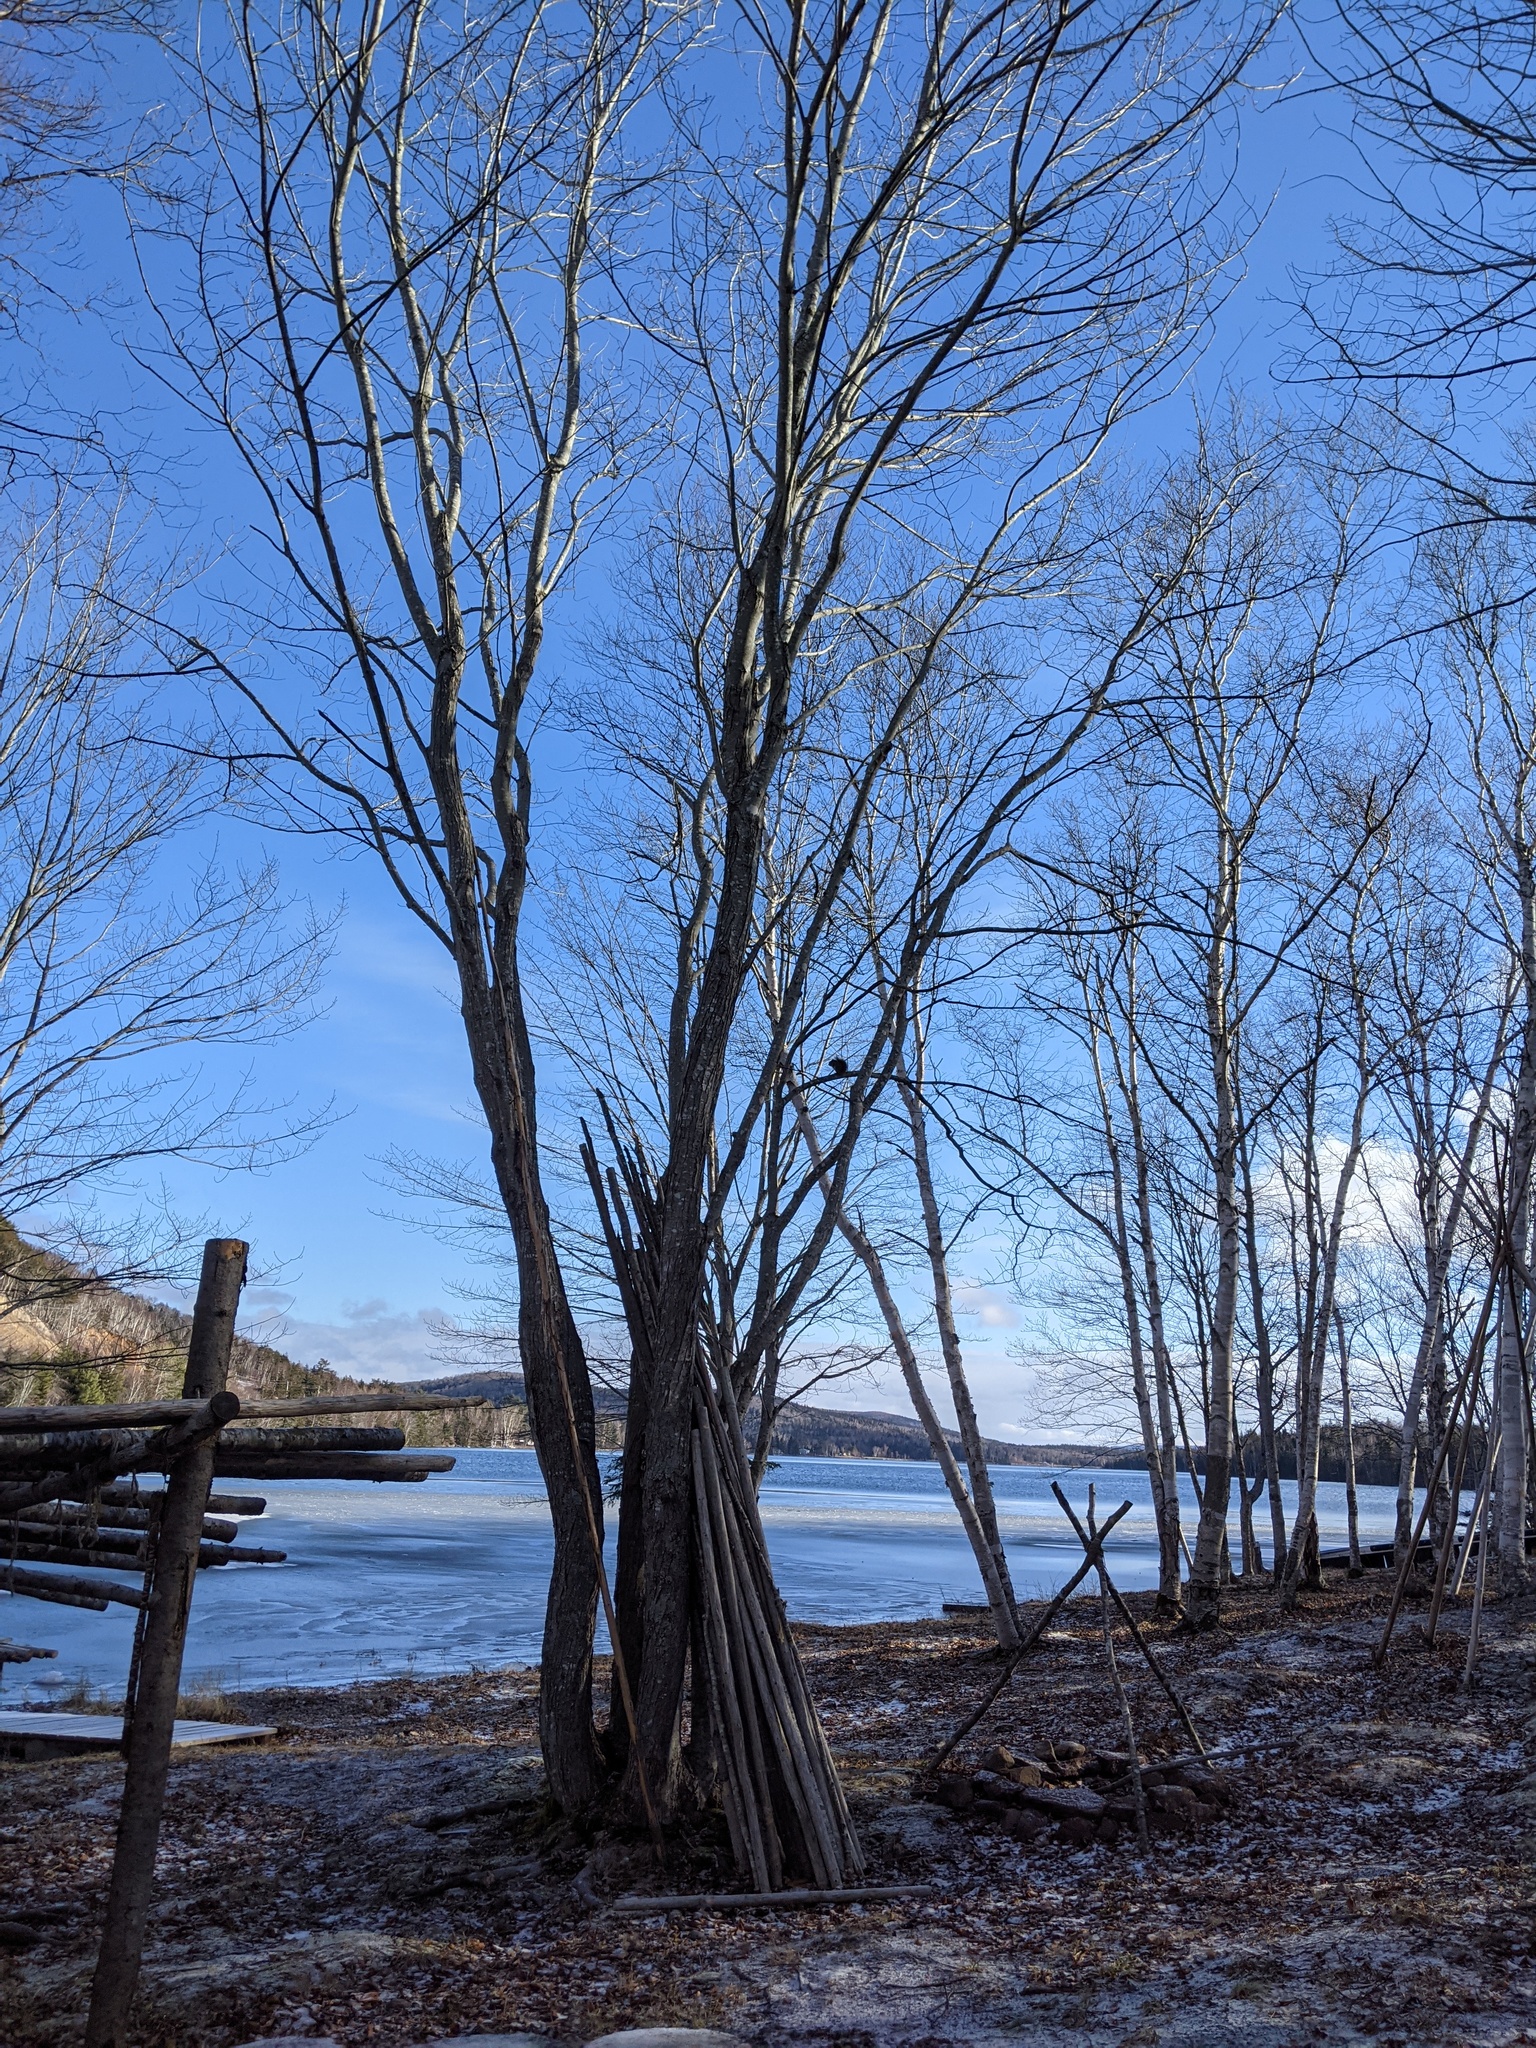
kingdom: Animalia
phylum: Chordata
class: Mammalia
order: Rodentia
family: Sciuridae
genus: Tamiasciurus
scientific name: Tamiasciurus hudsonicus
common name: Red squirrel
